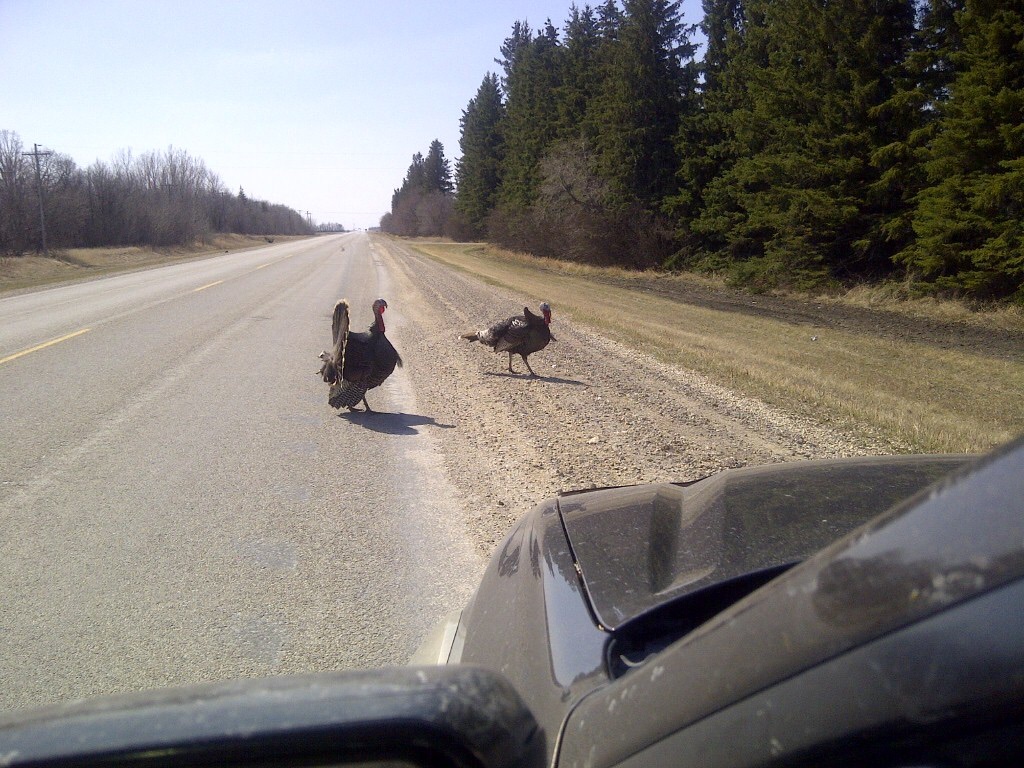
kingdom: Animalia
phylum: Chordata
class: Aves
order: Galliformes
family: Phasianidae
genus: Meleagris
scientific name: Meleagris gallopavo
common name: Wild turkey
